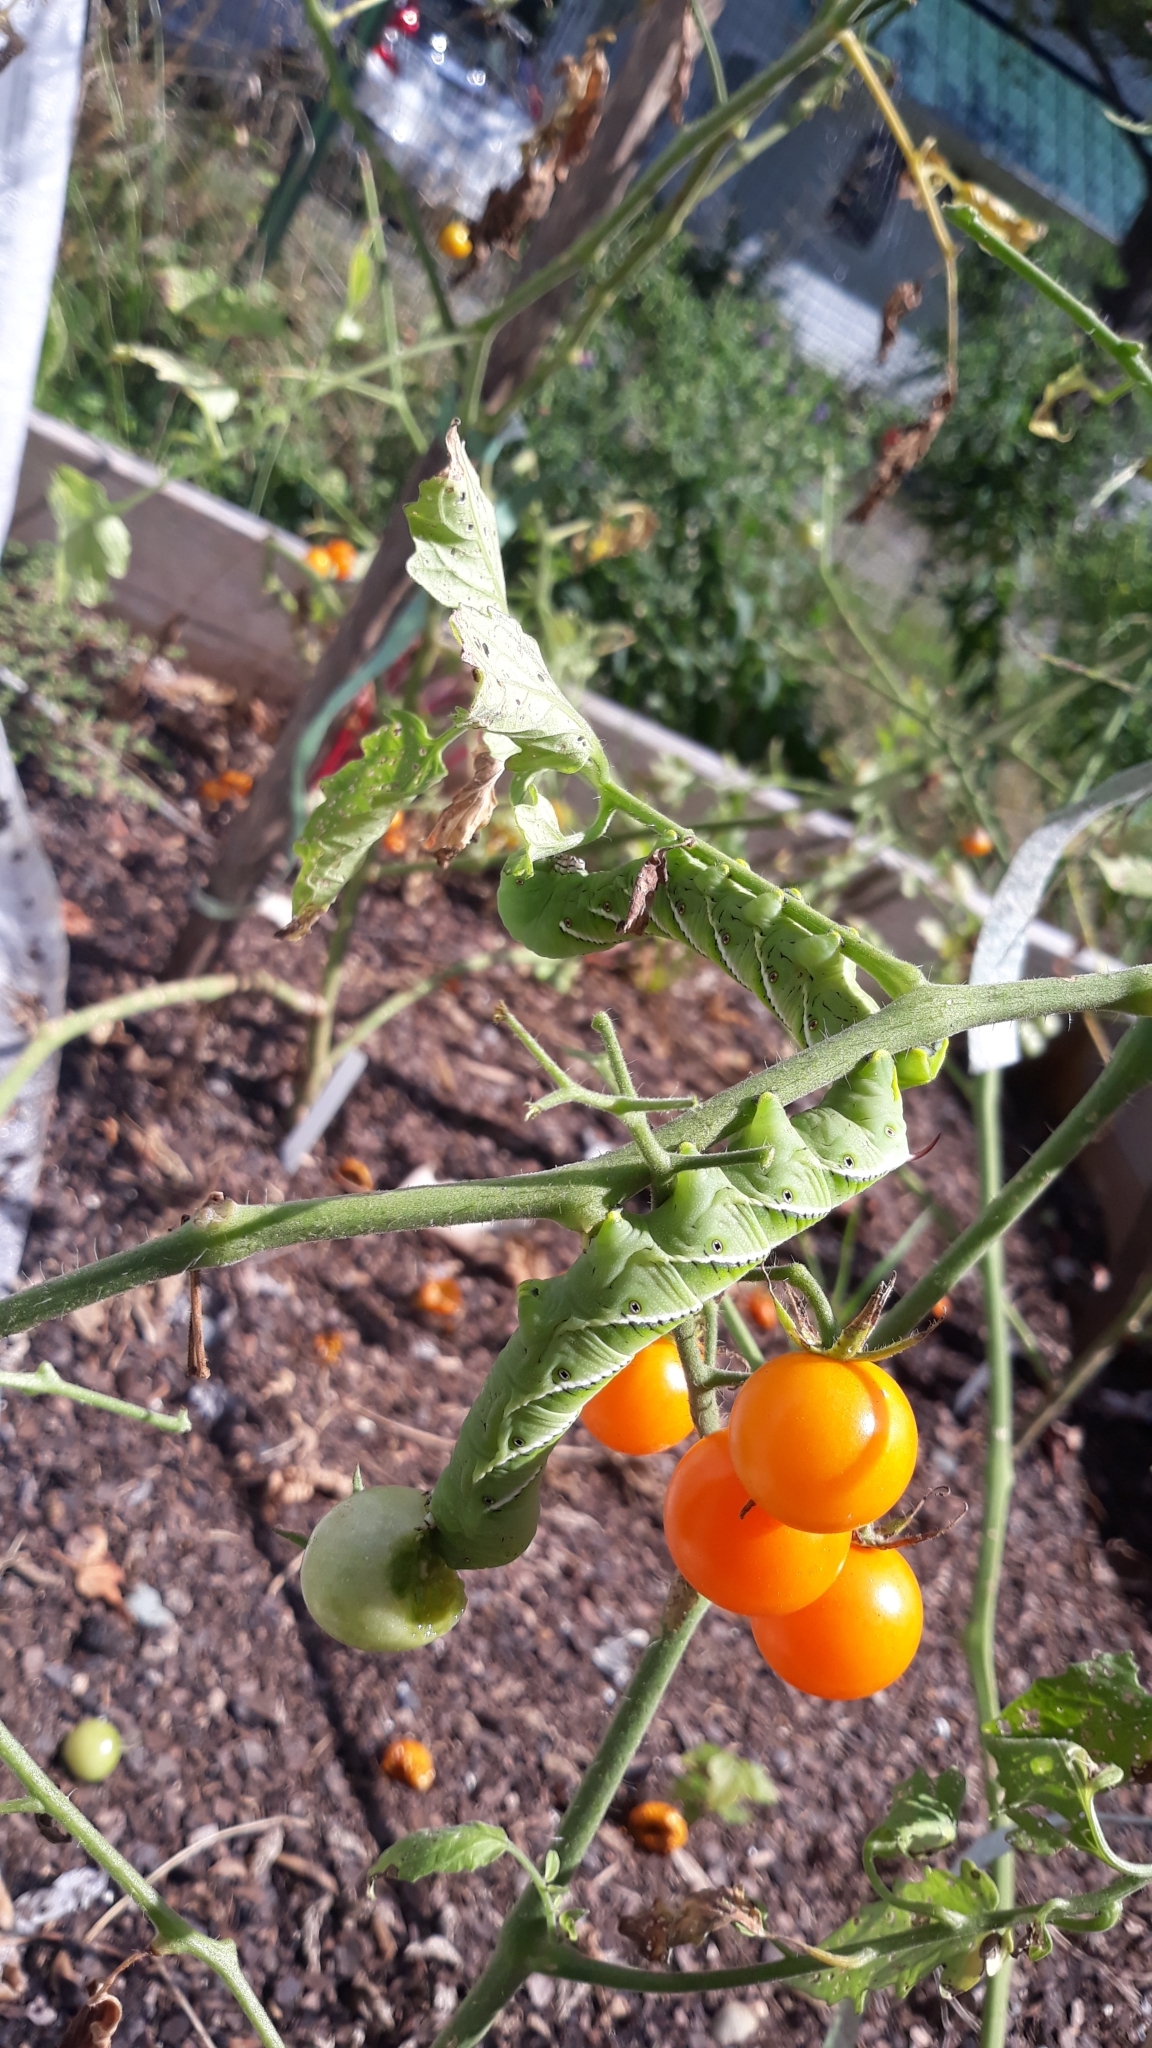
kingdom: Animalia
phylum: Arthropoda
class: Insecta
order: Lepidoptera
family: Sphingidae
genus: Manduca
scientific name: Manduca sexta
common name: Carolina sphinx
